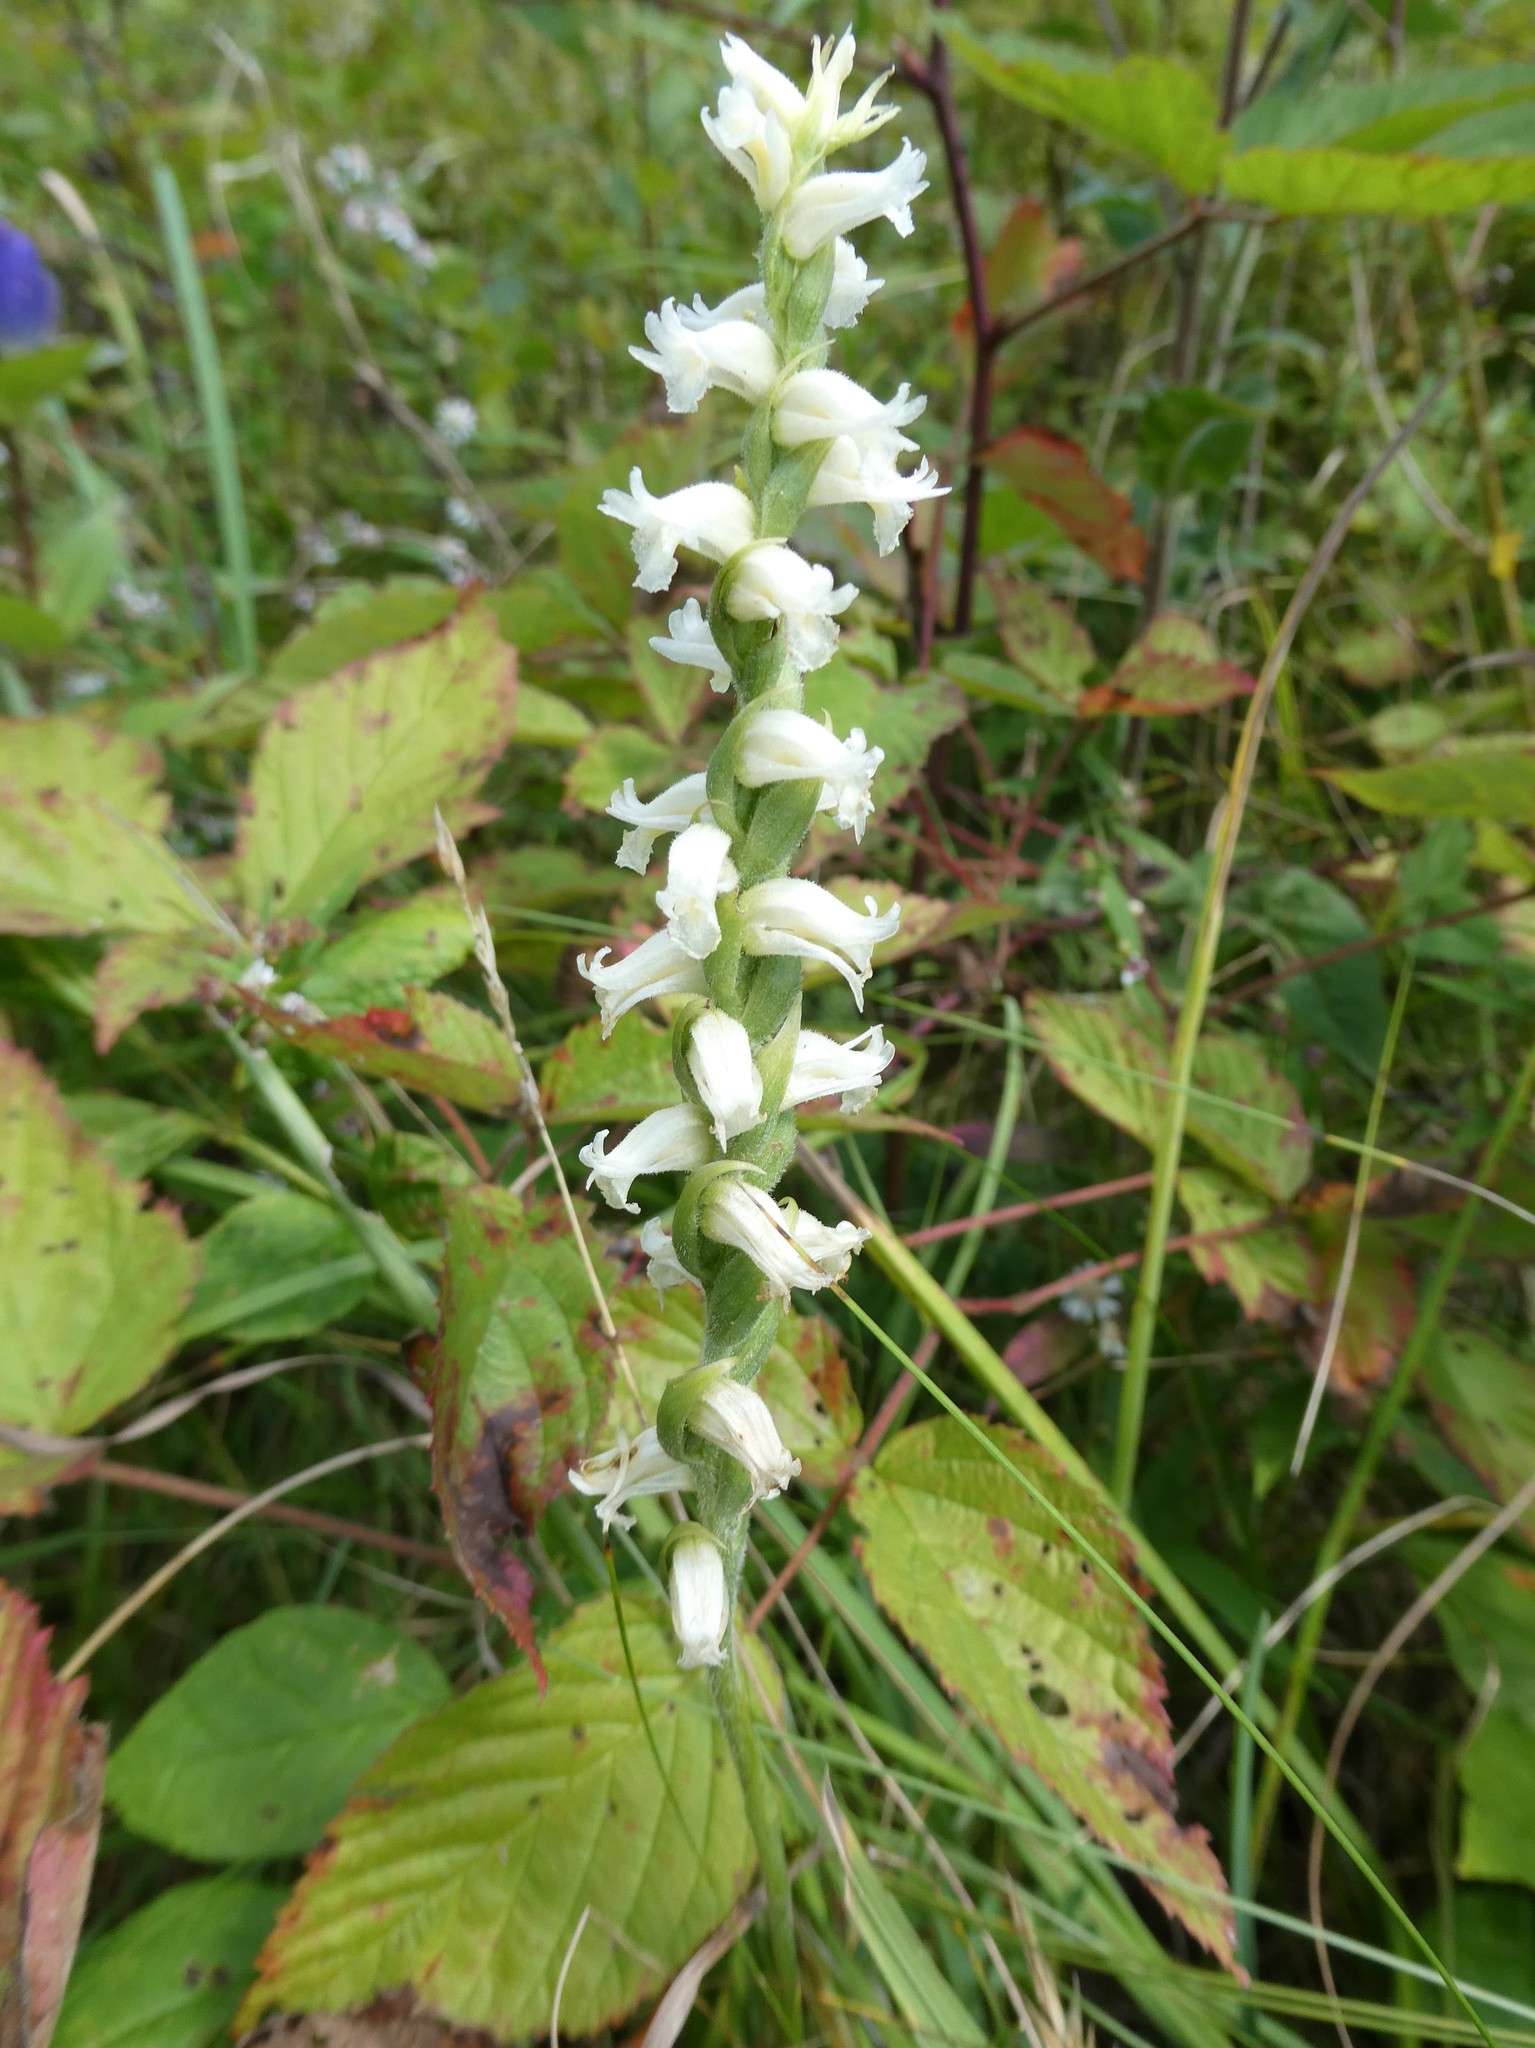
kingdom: Plantae
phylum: Tracheophyta
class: Liliopsida
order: Asparagales
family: Orchidaceae
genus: Spiranthes
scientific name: Spiranthes ochroleuca
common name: Yellow ladies'-tresses
